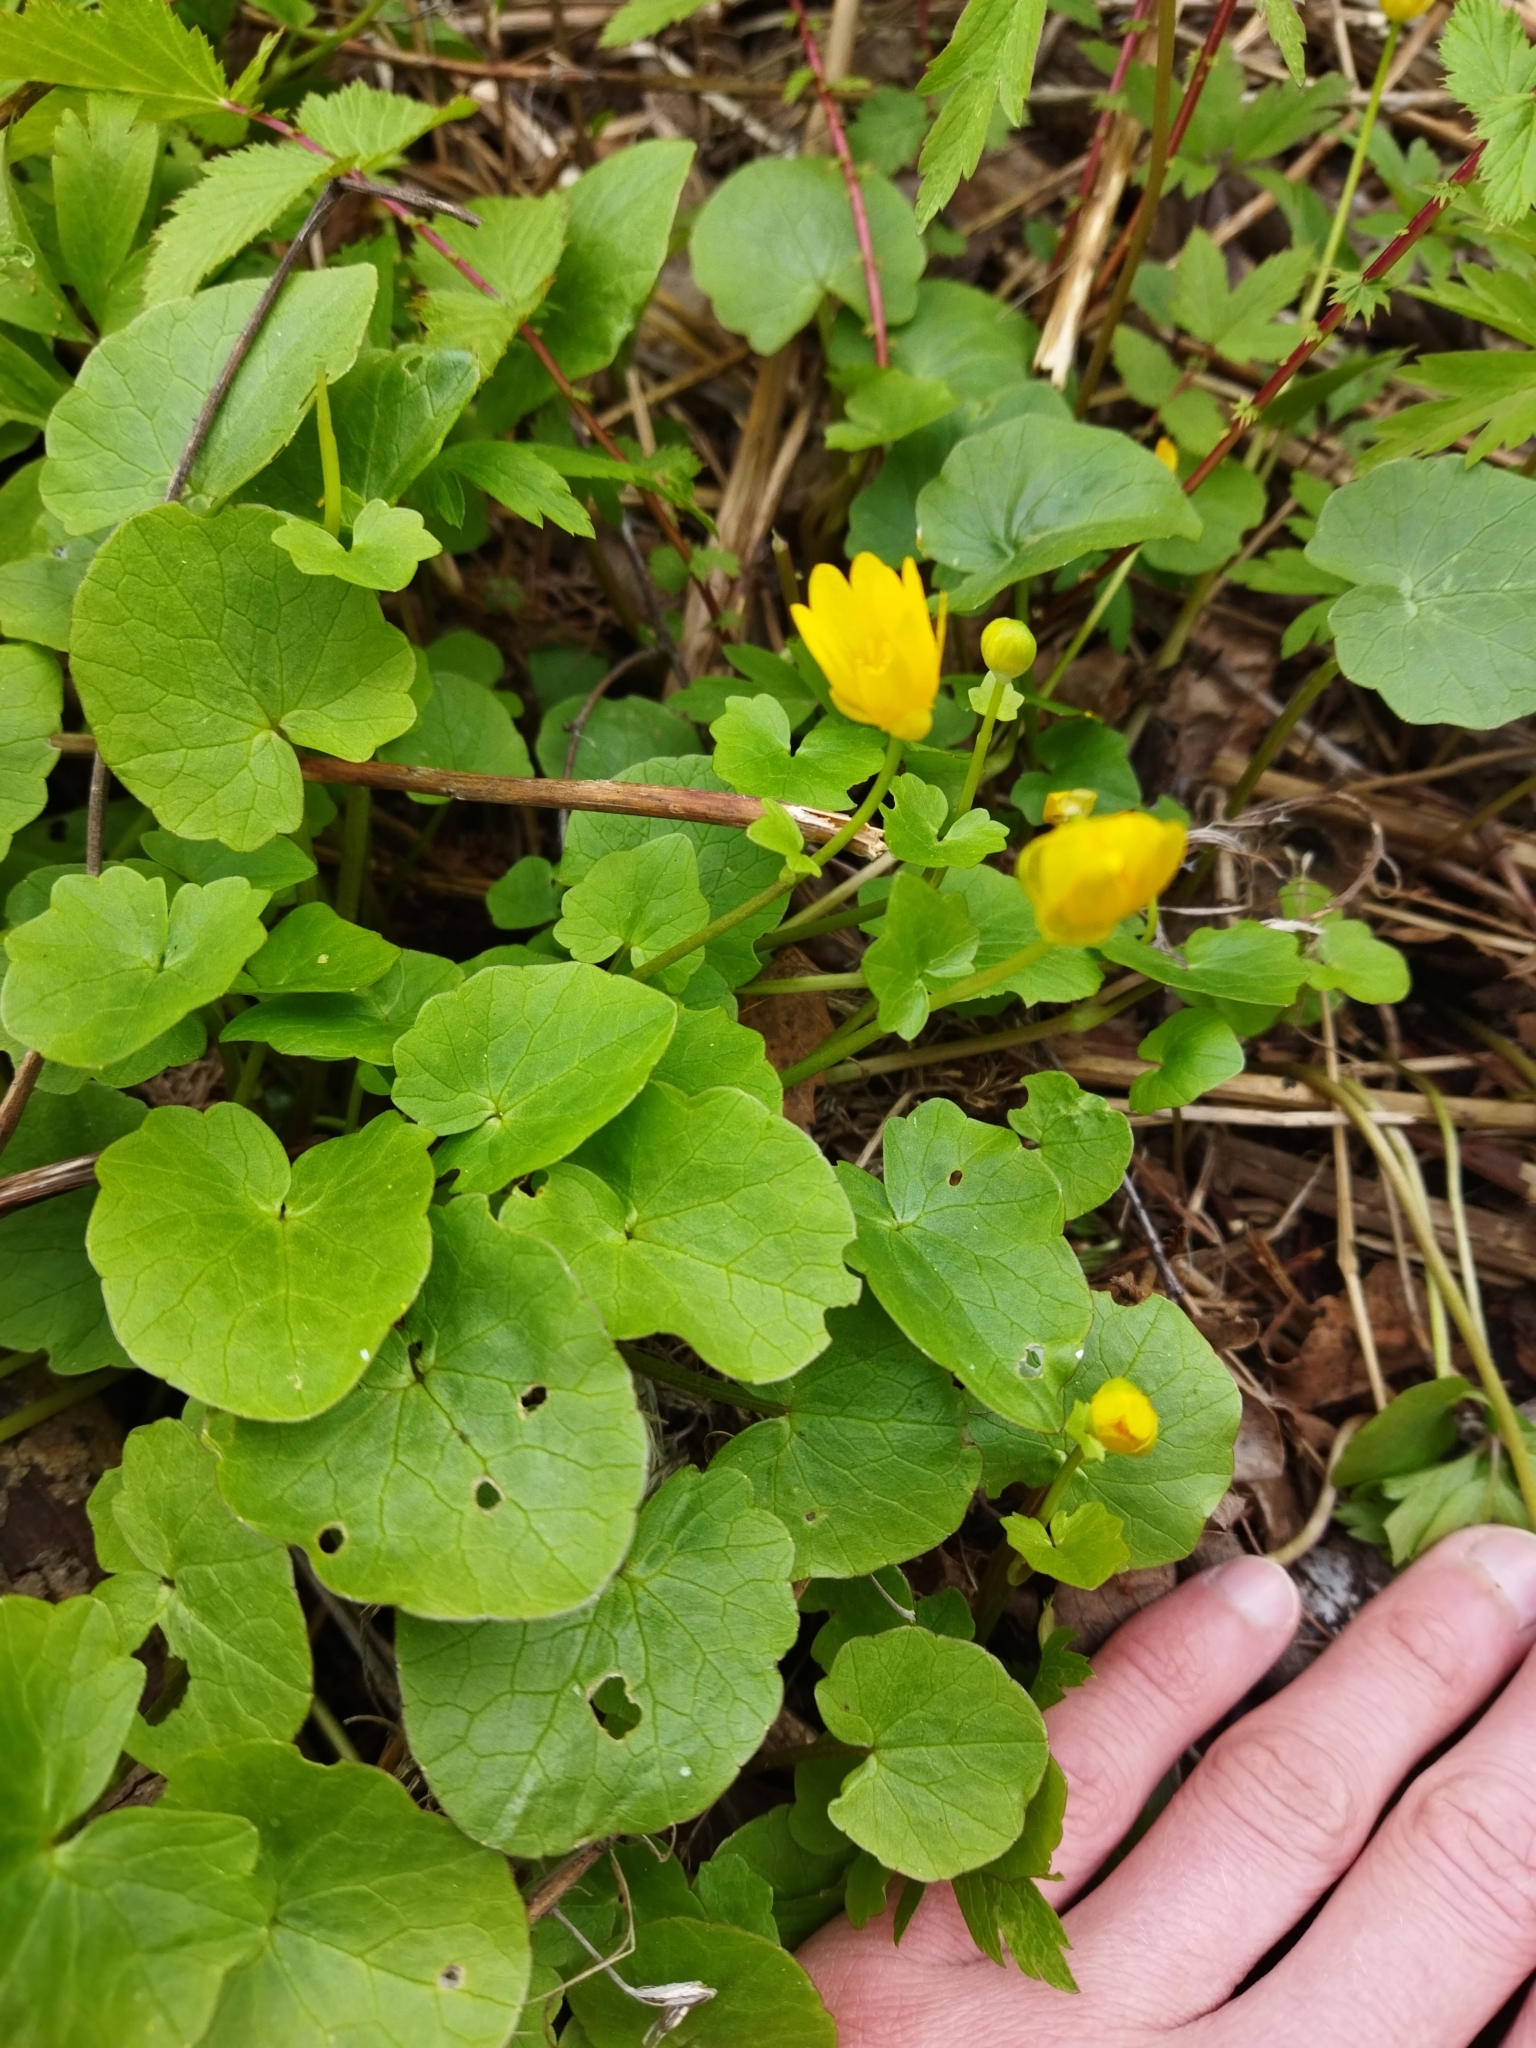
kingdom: Plantae
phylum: Tracheophyta
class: Magnoliopsida
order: Ranunculales
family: Ranunculaceae
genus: Ficaria
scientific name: Ficaria verna
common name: Lesser celandine
